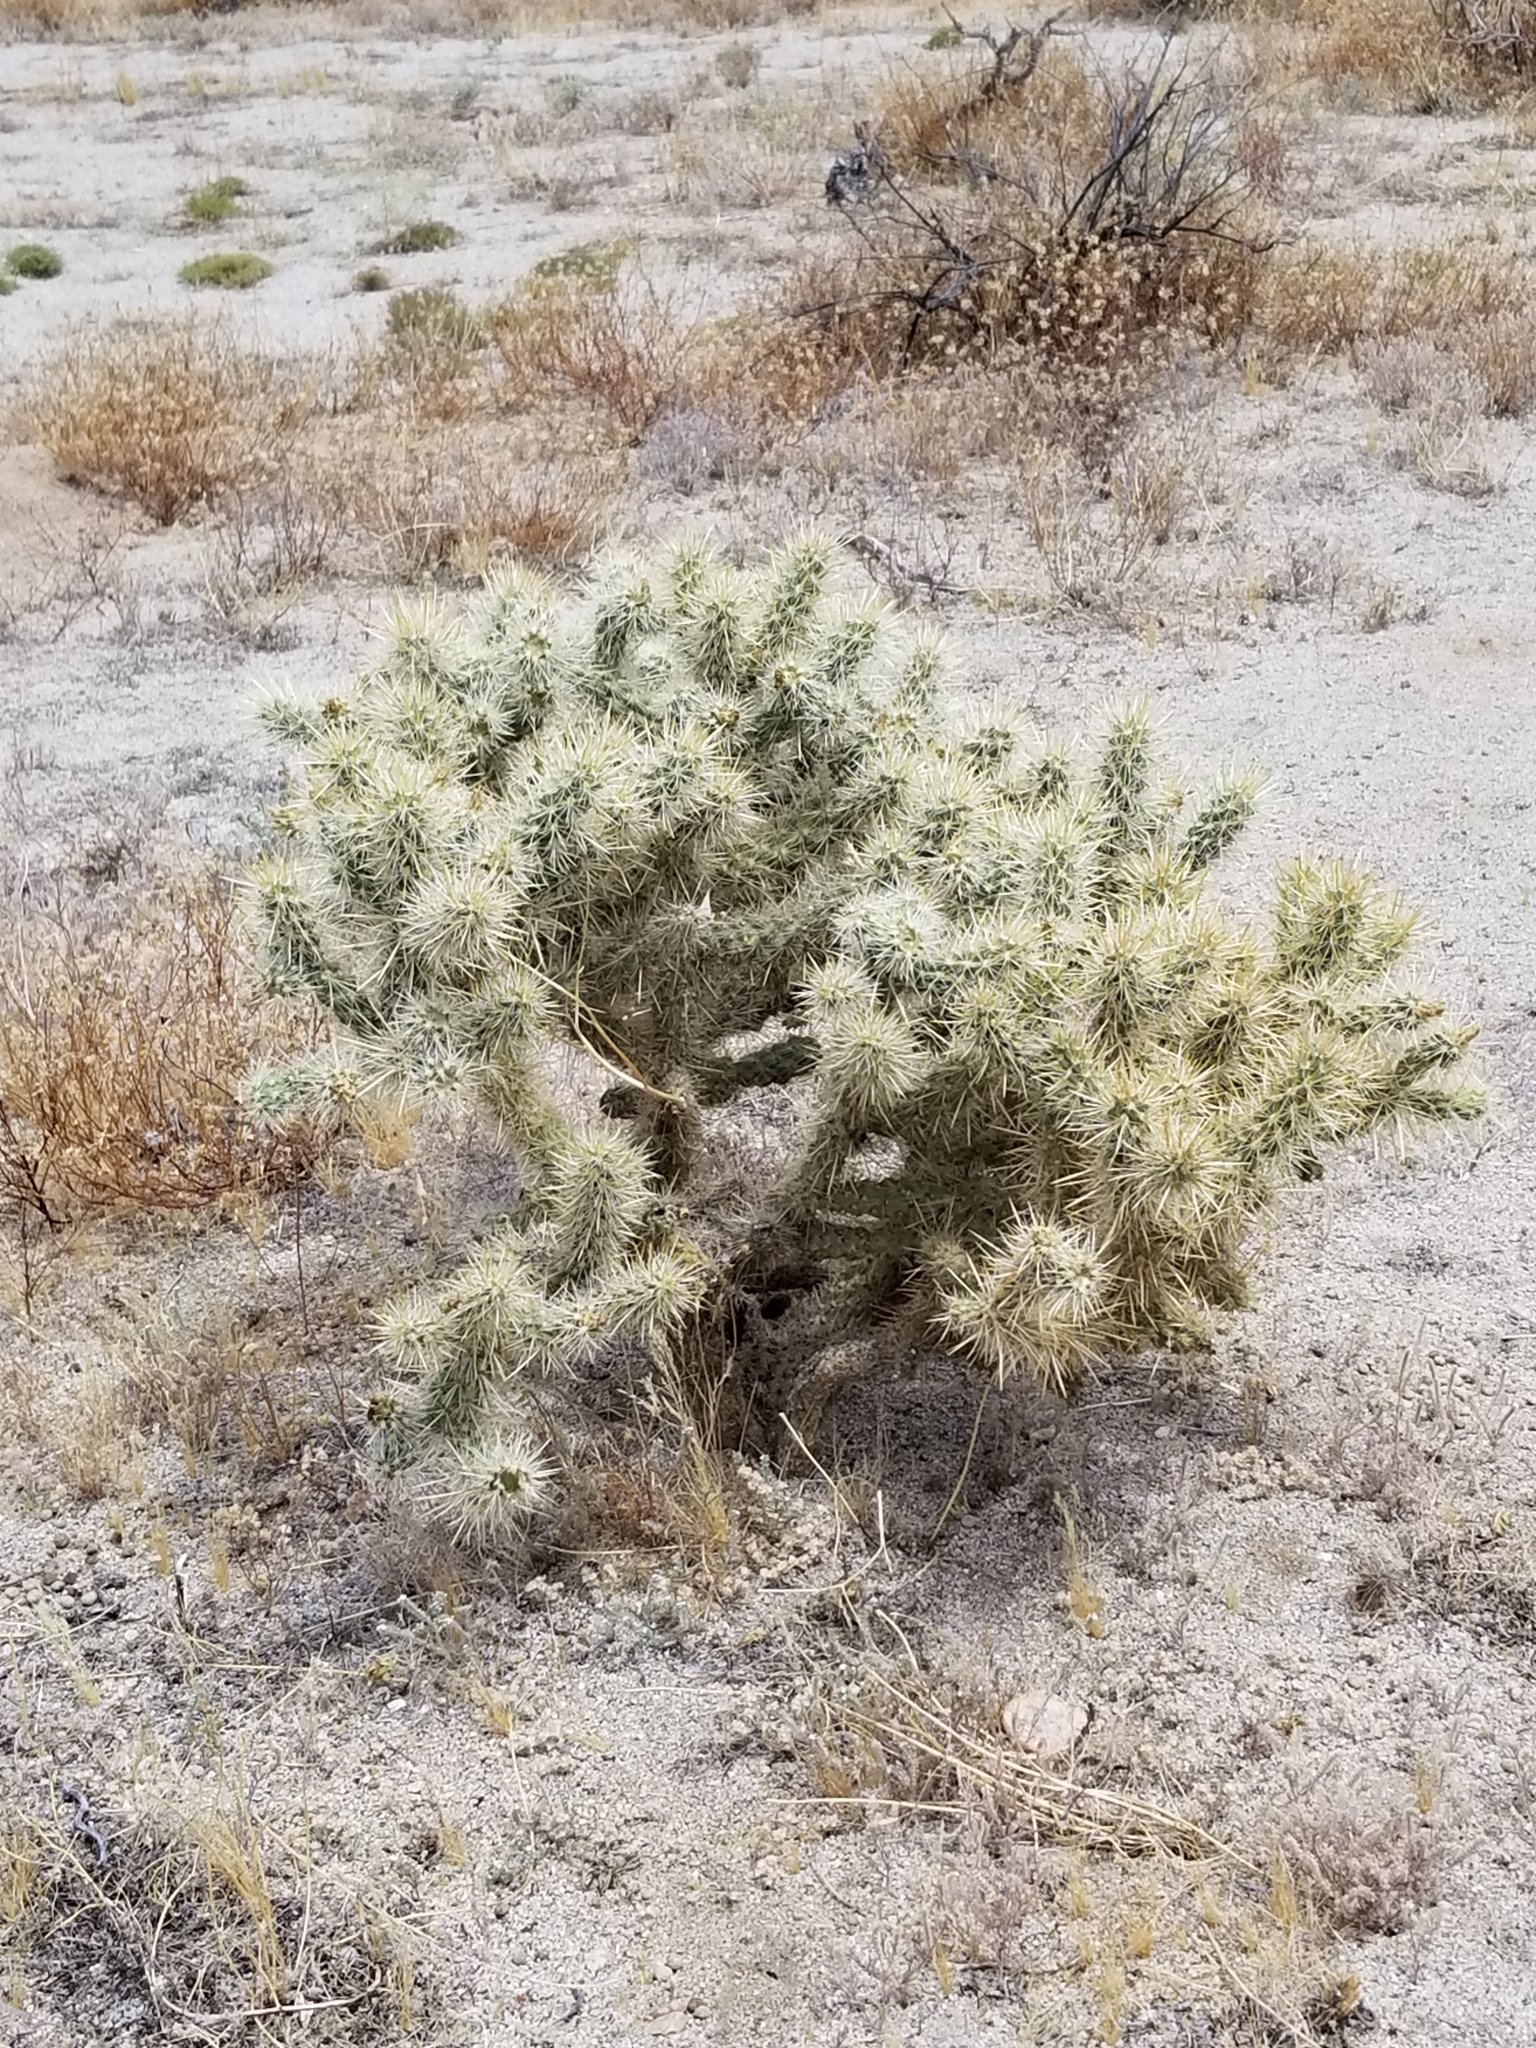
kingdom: Plantae
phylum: Tracheophyta
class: Magnoliopsida
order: Caryophyllales
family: Cactaceae
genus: Cylindropuntia
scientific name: Cylindropuntia echinocarpa
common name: Ground cholla
